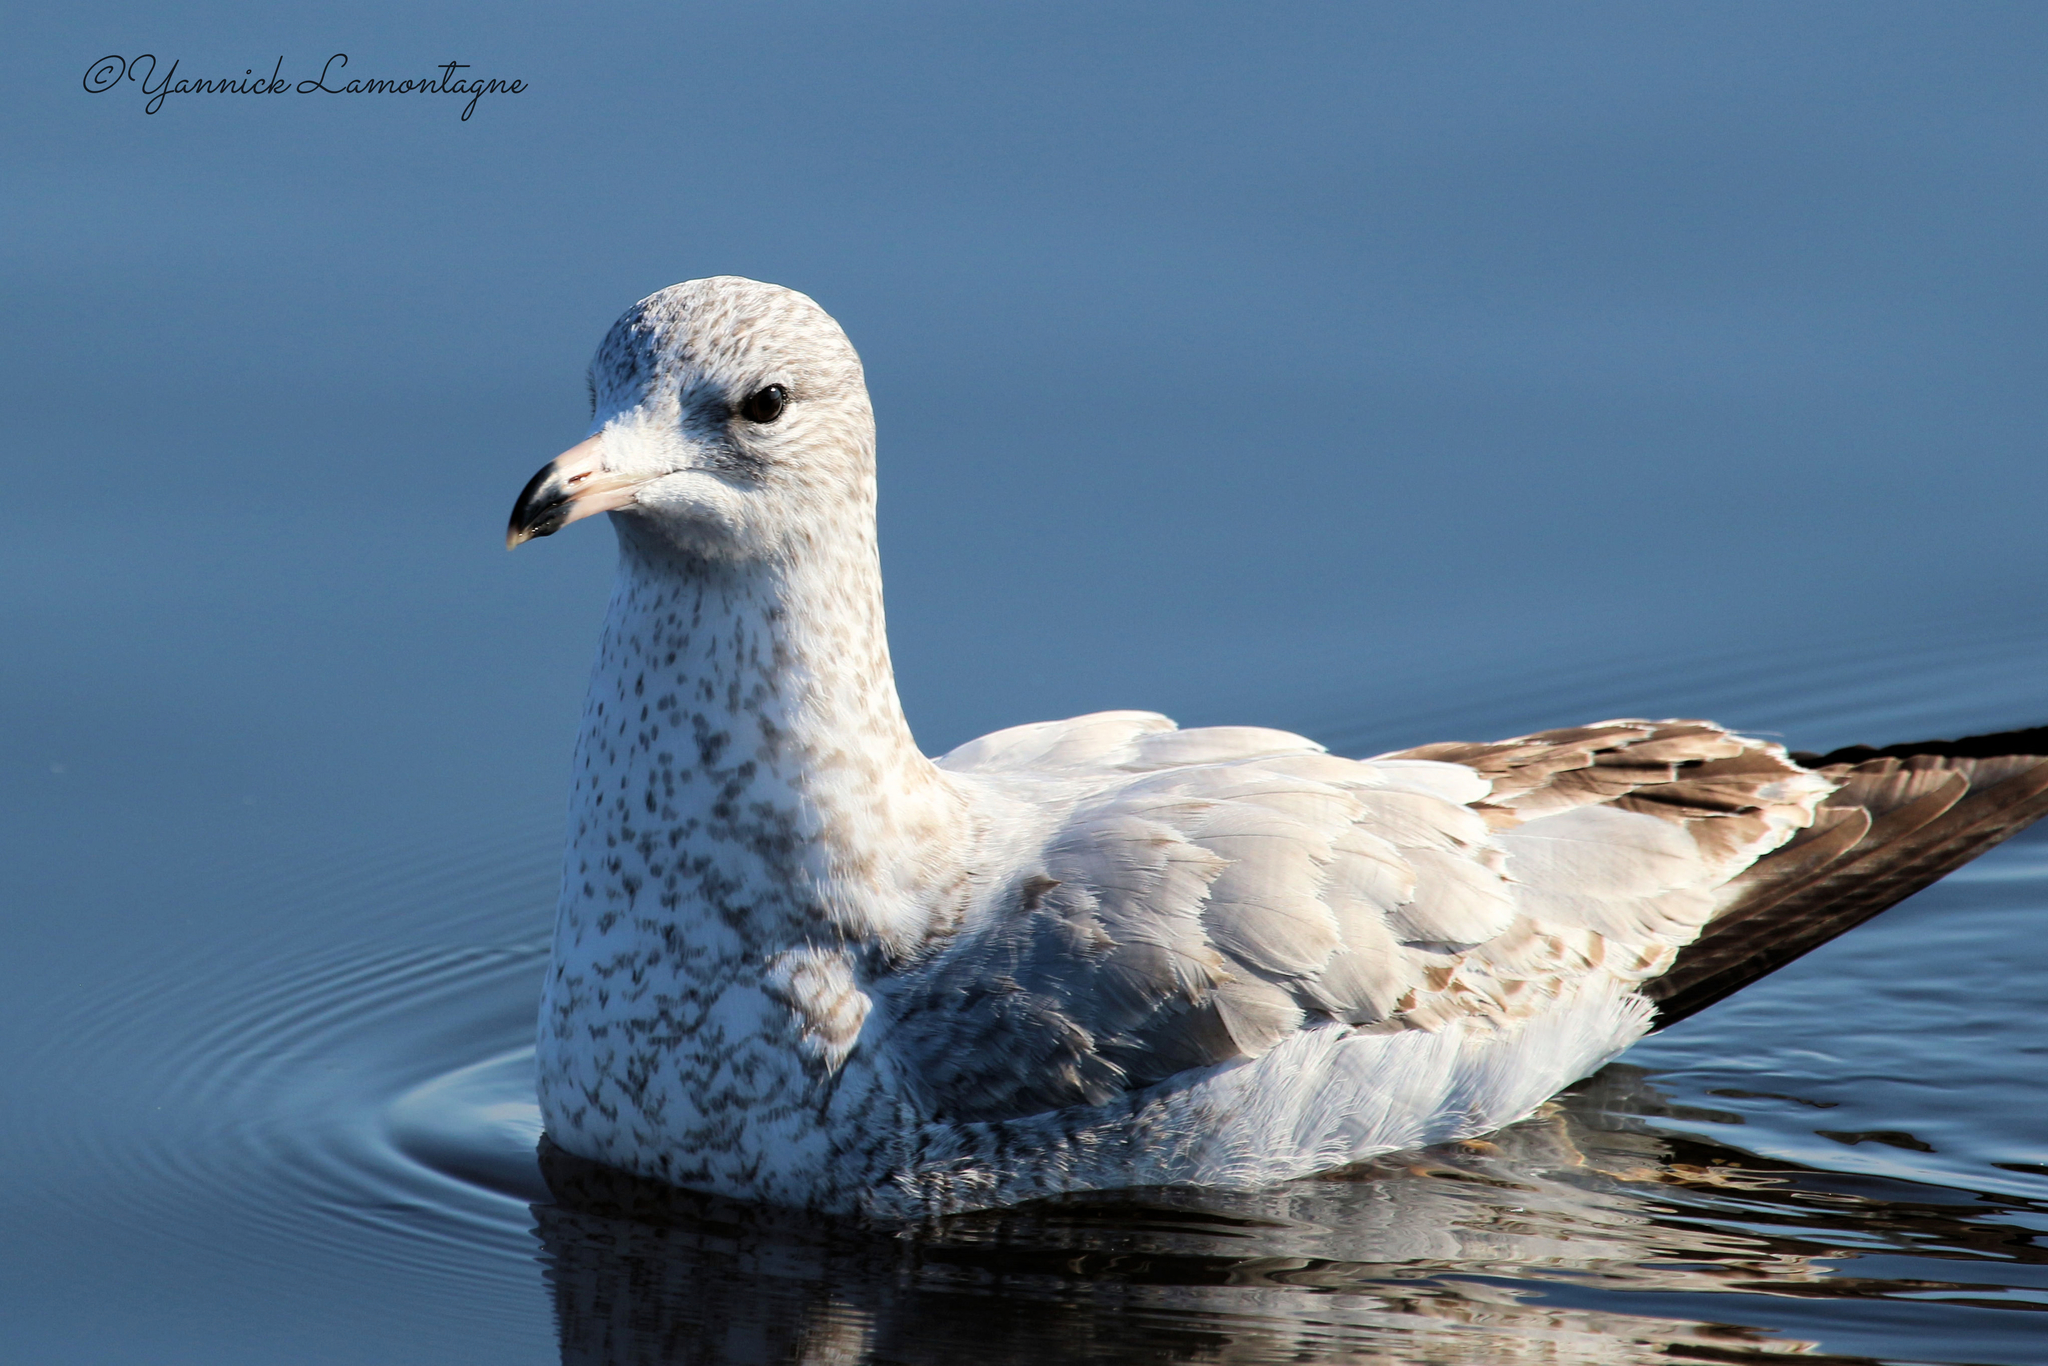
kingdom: Animalia
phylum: Chordata
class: Aves
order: Charadriiformes
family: Laridae
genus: Larus
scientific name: Larus delawarensis
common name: Ring-billed gull
